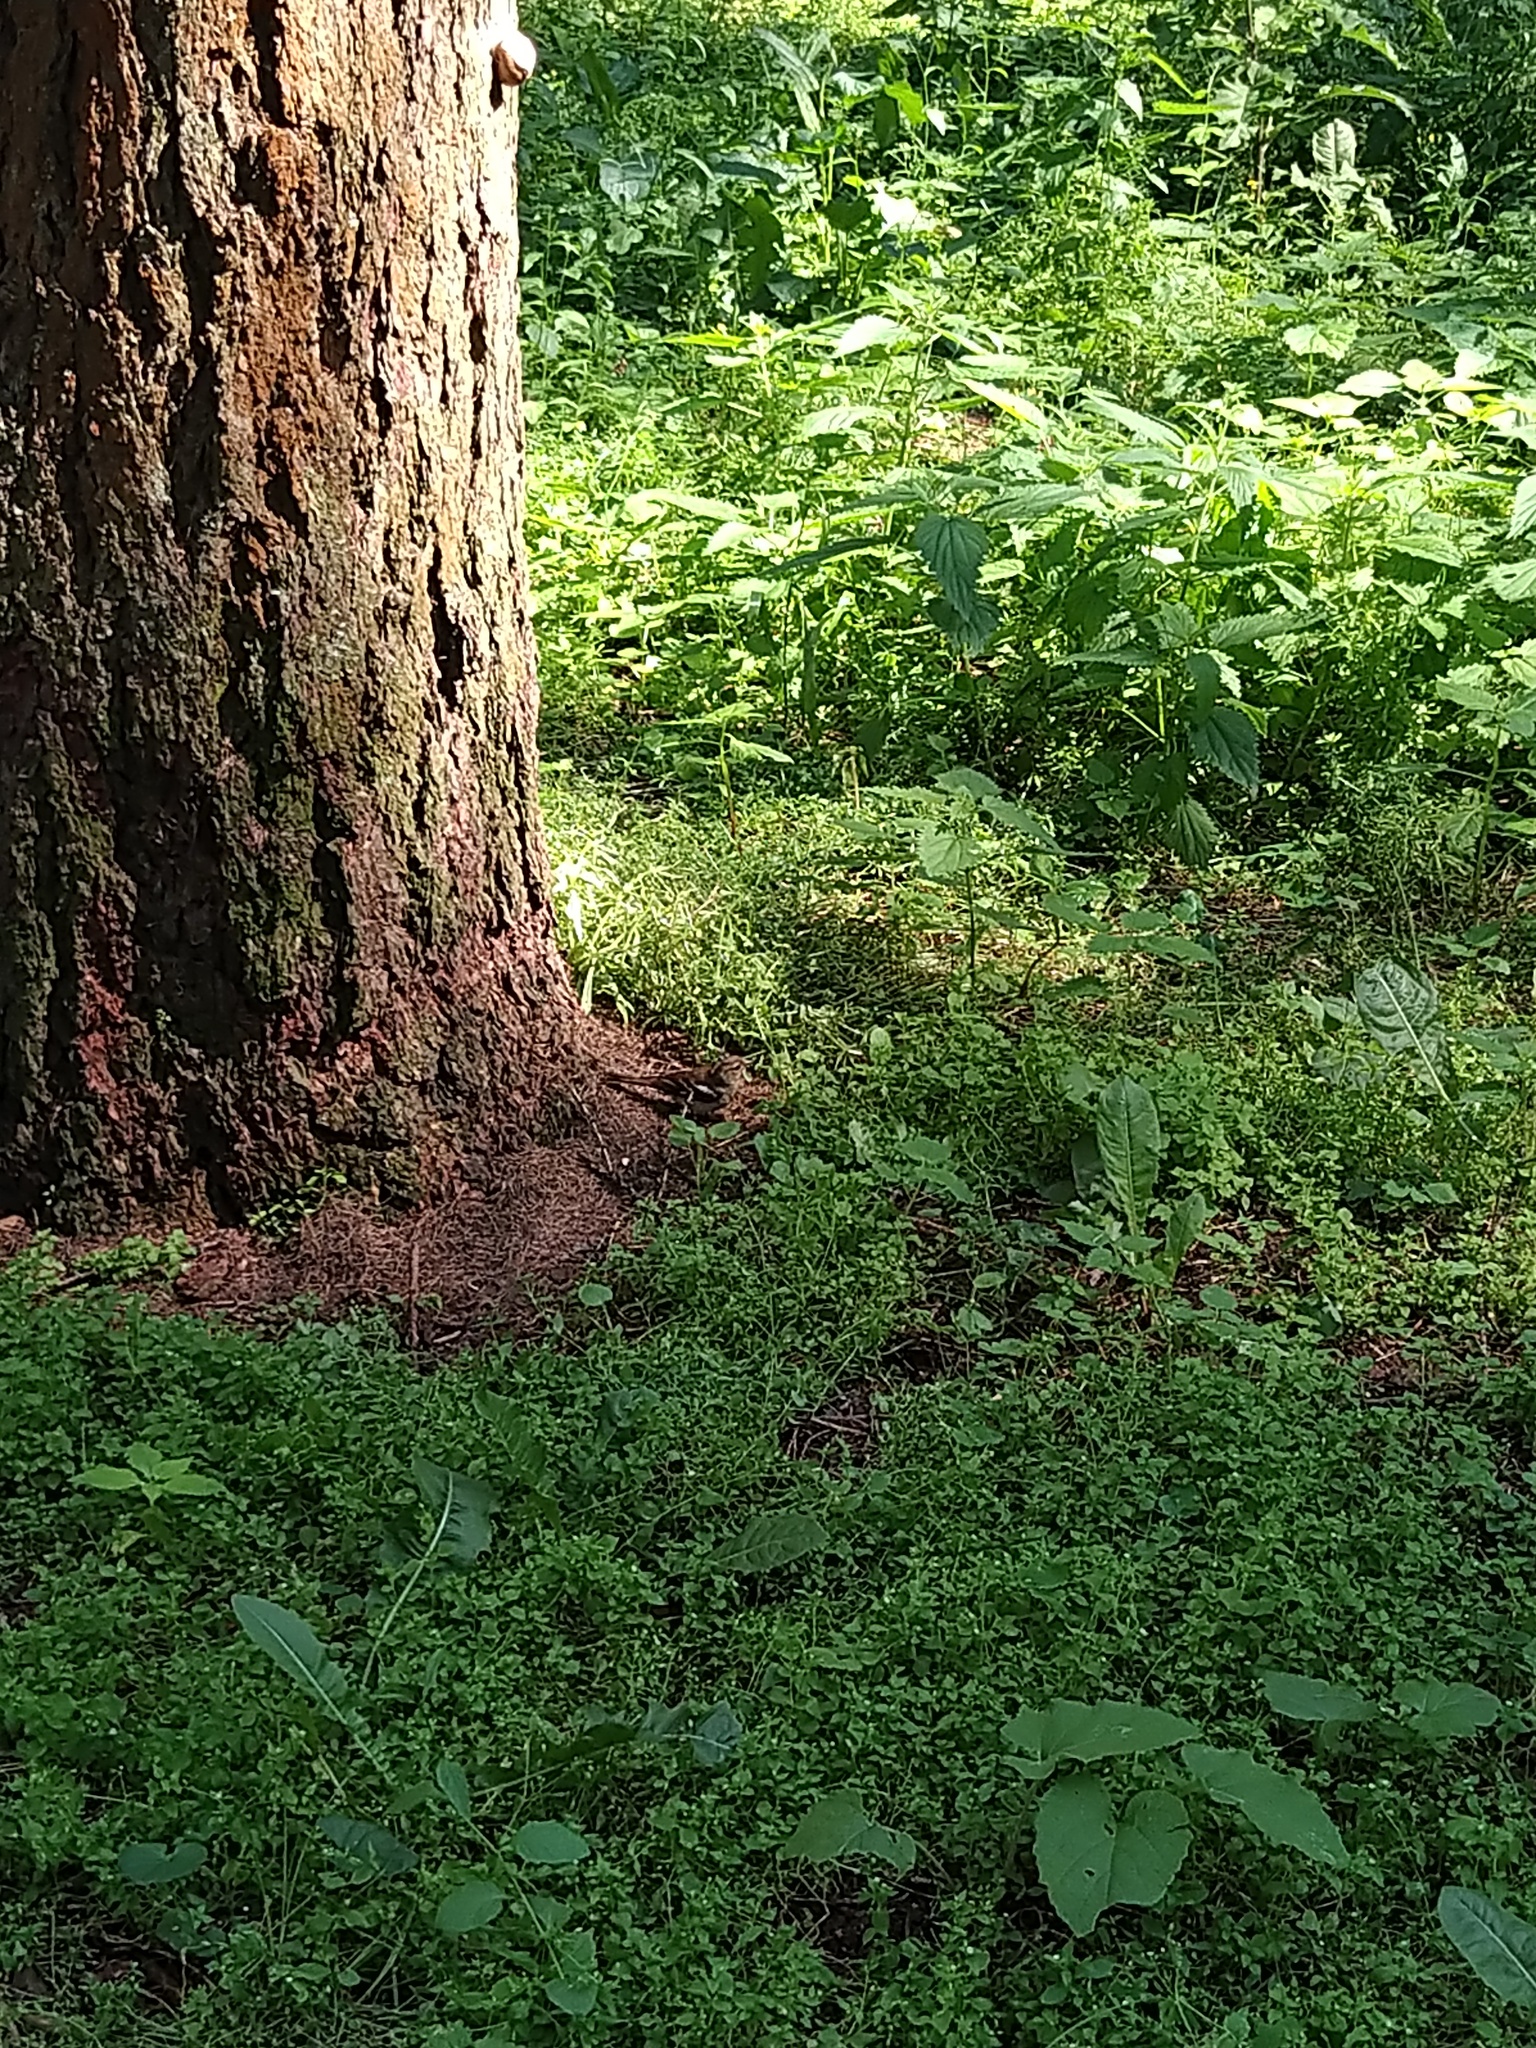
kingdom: Animalia
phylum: Chordata
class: Aves
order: Passeriformes
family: Fringillidae
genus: Fringilla
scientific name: Fringilla coelebs
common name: Common chaffinch
